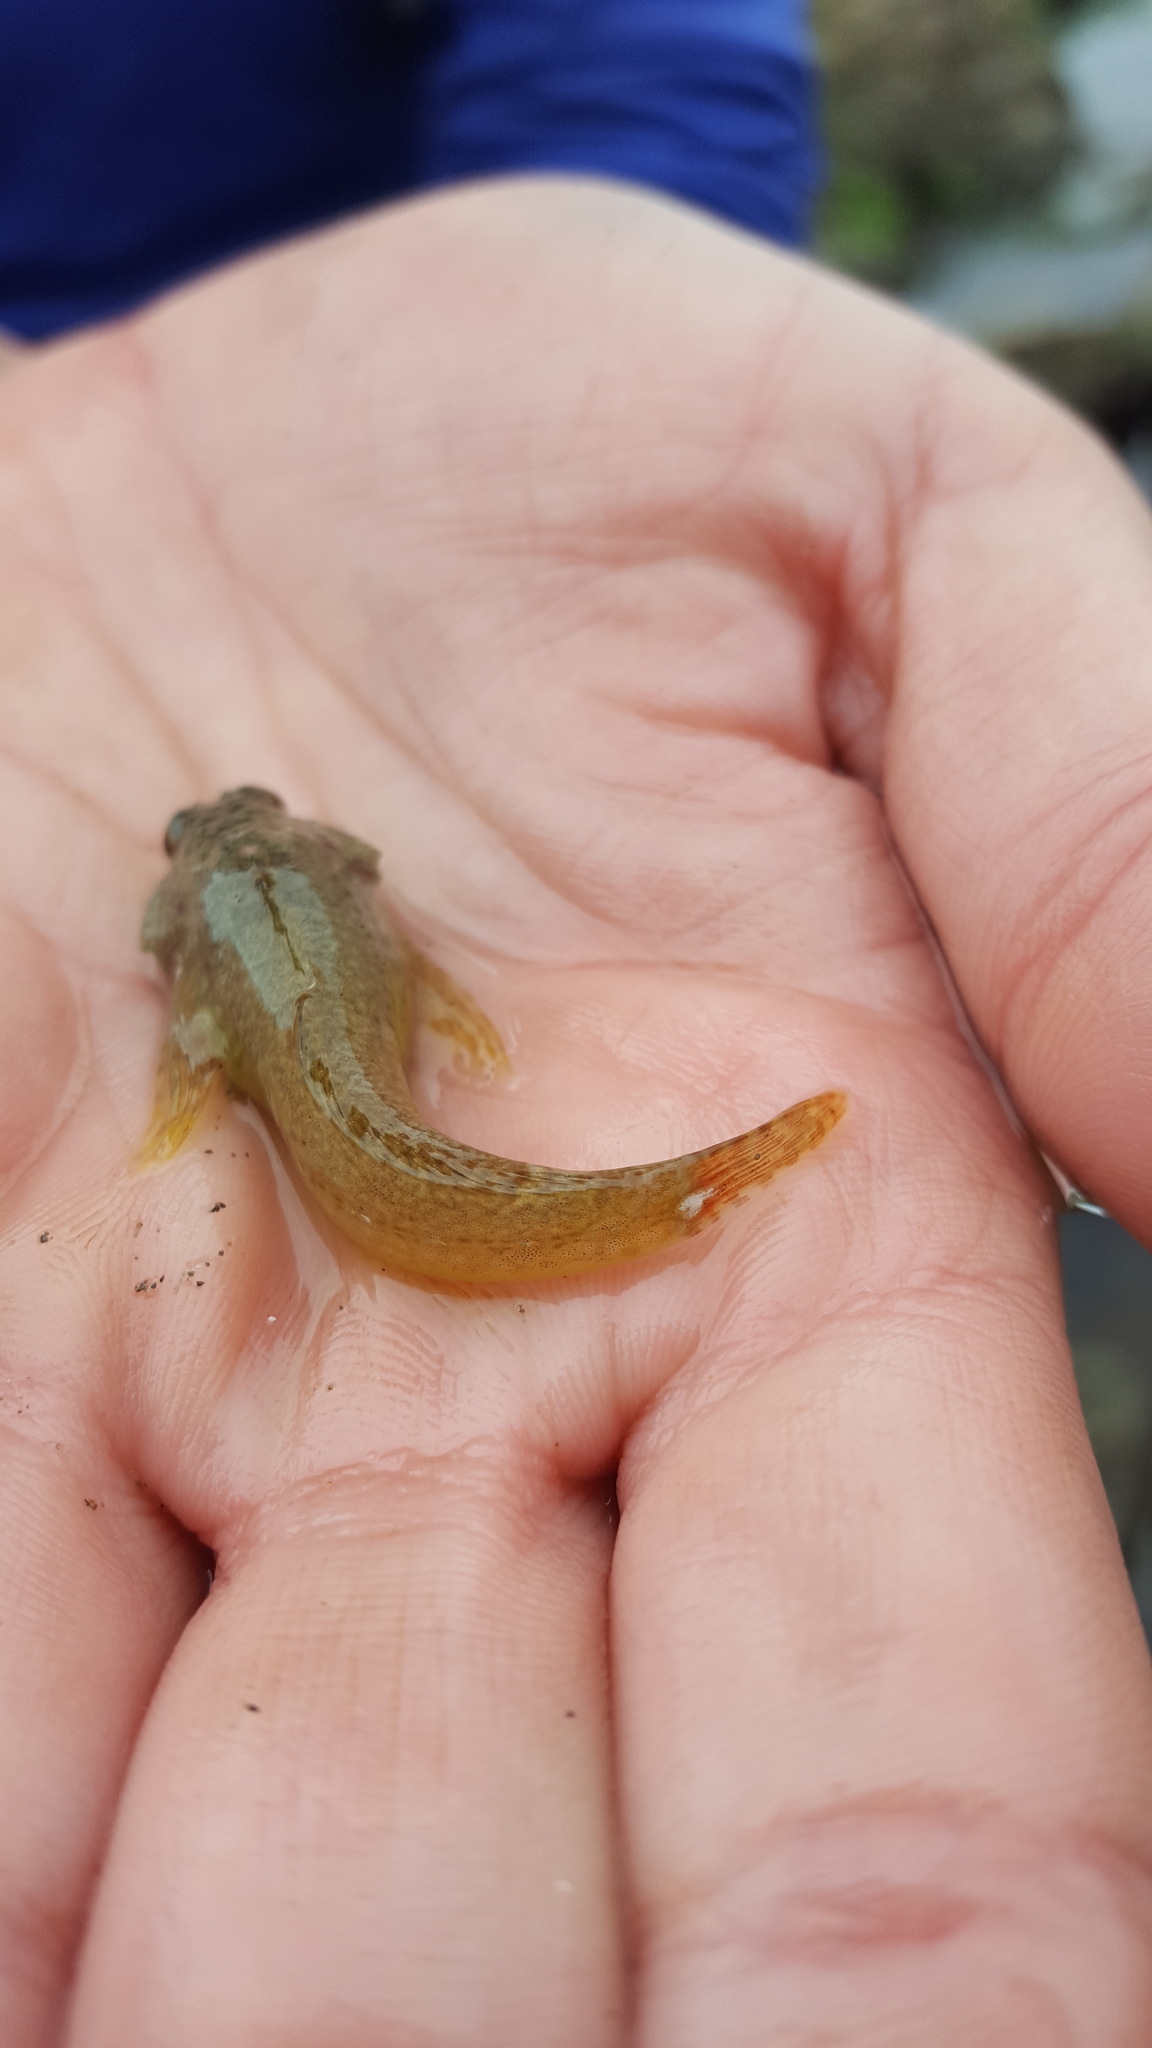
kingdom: Animalia
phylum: Chordata
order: Scorpaeniformes
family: Cottidae
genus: Oligocottus
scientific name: Oligocottus maculosus
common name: Tidepool sculpin
